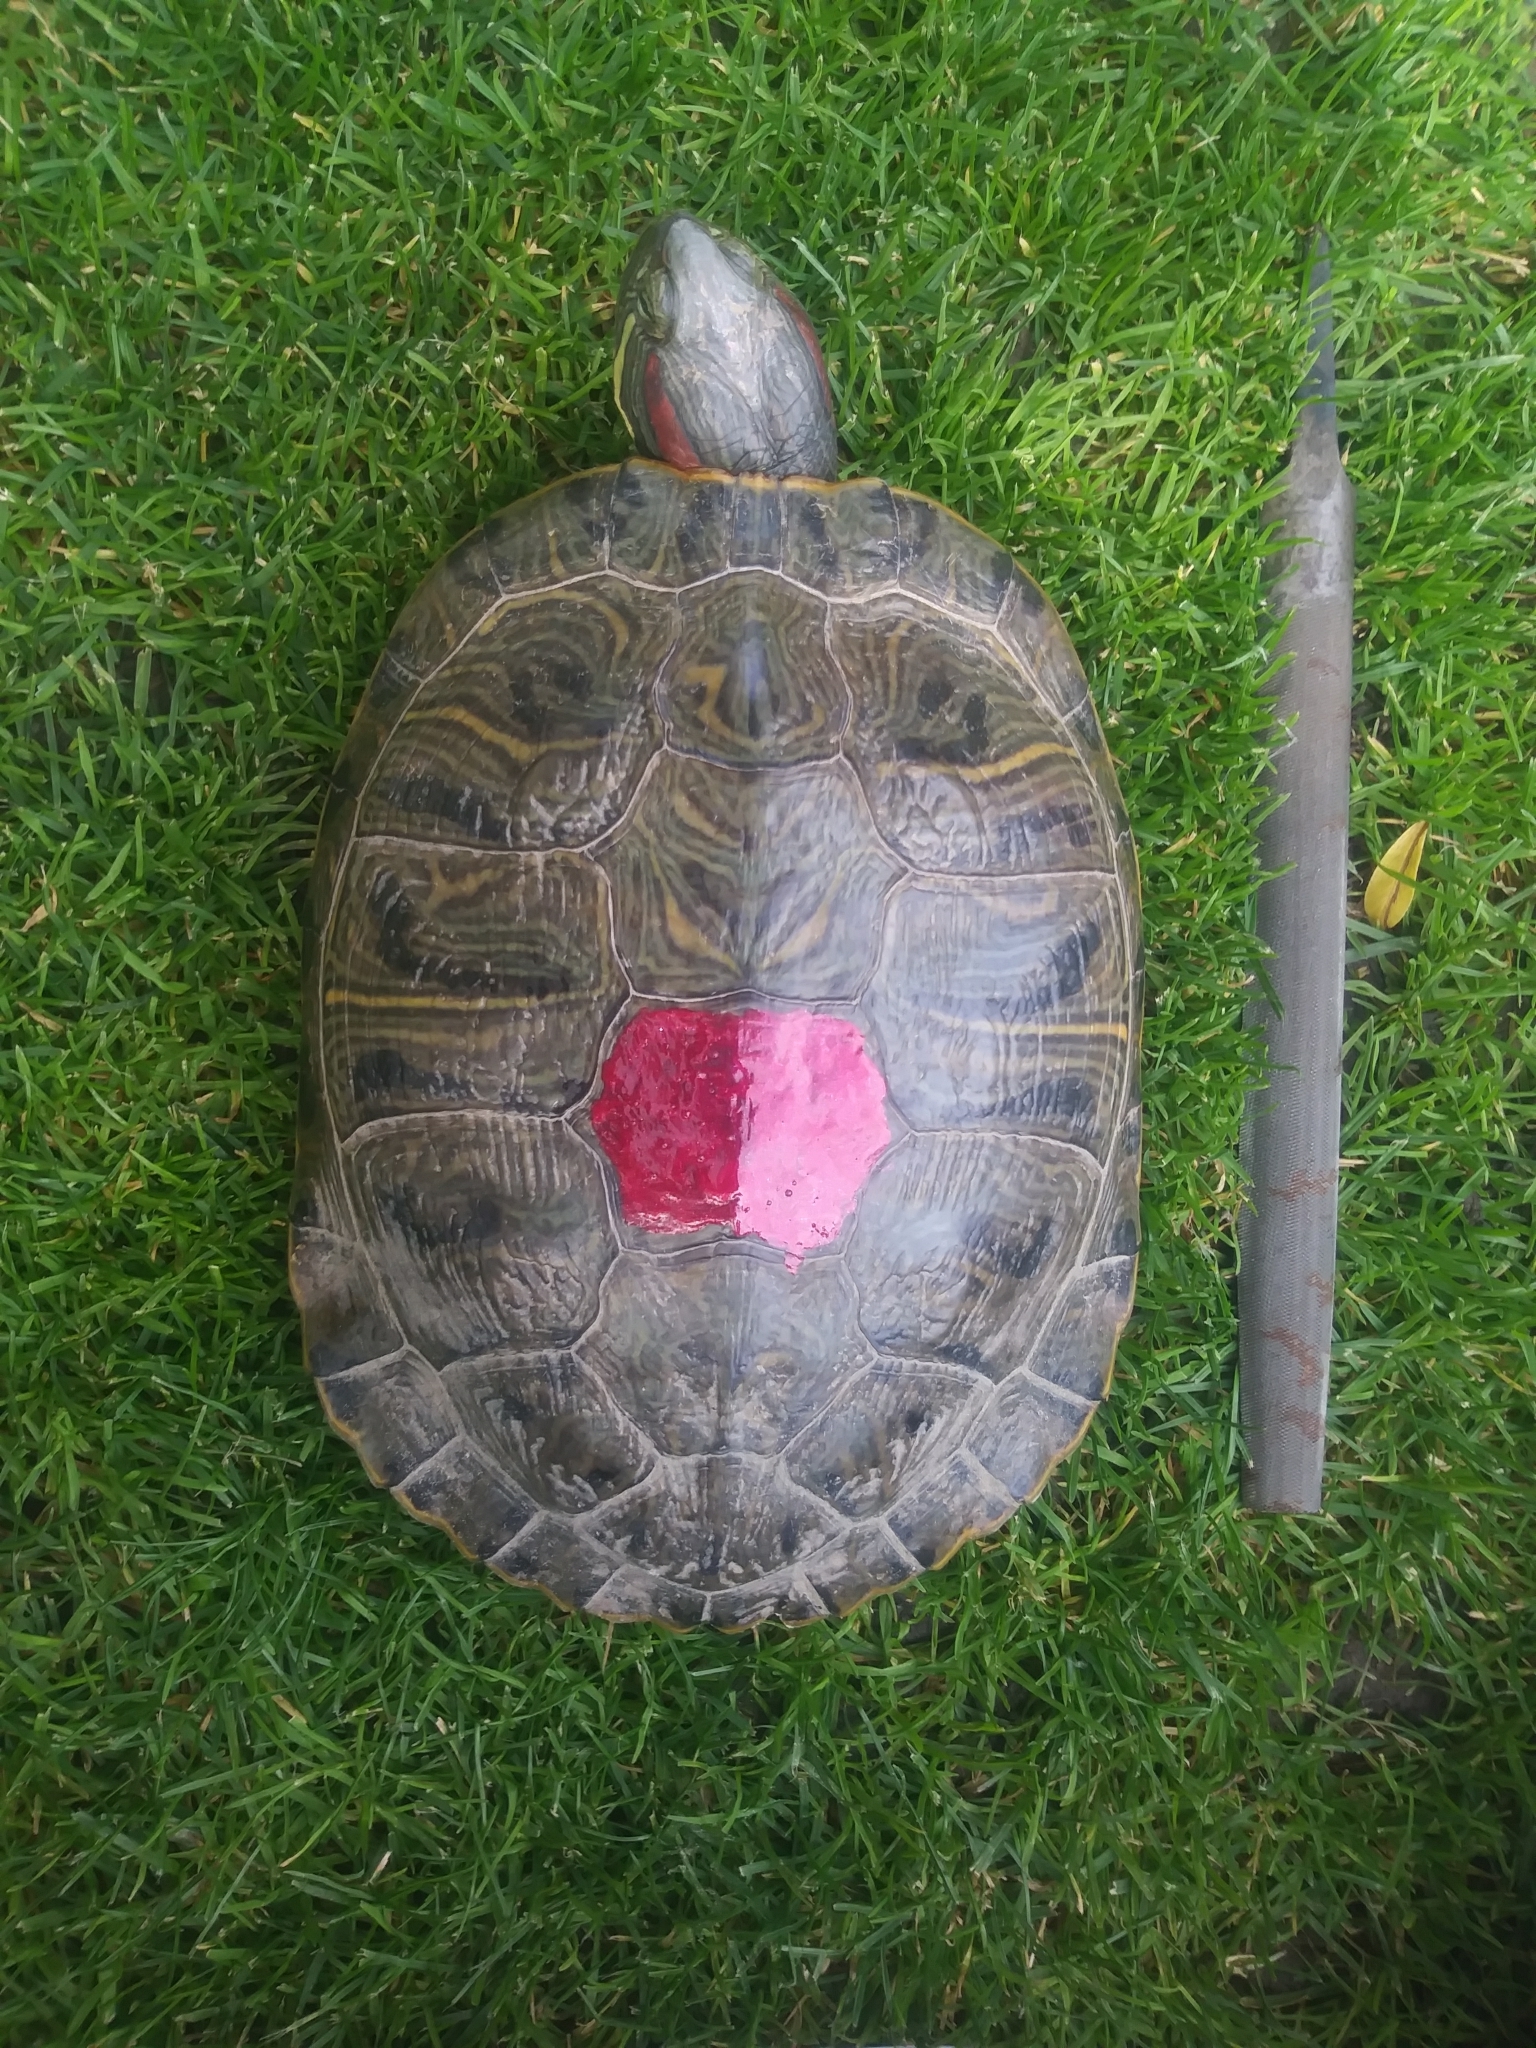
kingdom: Animalia
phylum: Chordata
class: Testudines
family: Emydidae
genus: Trachemys
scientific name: Trachemys scripta
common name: Slider
